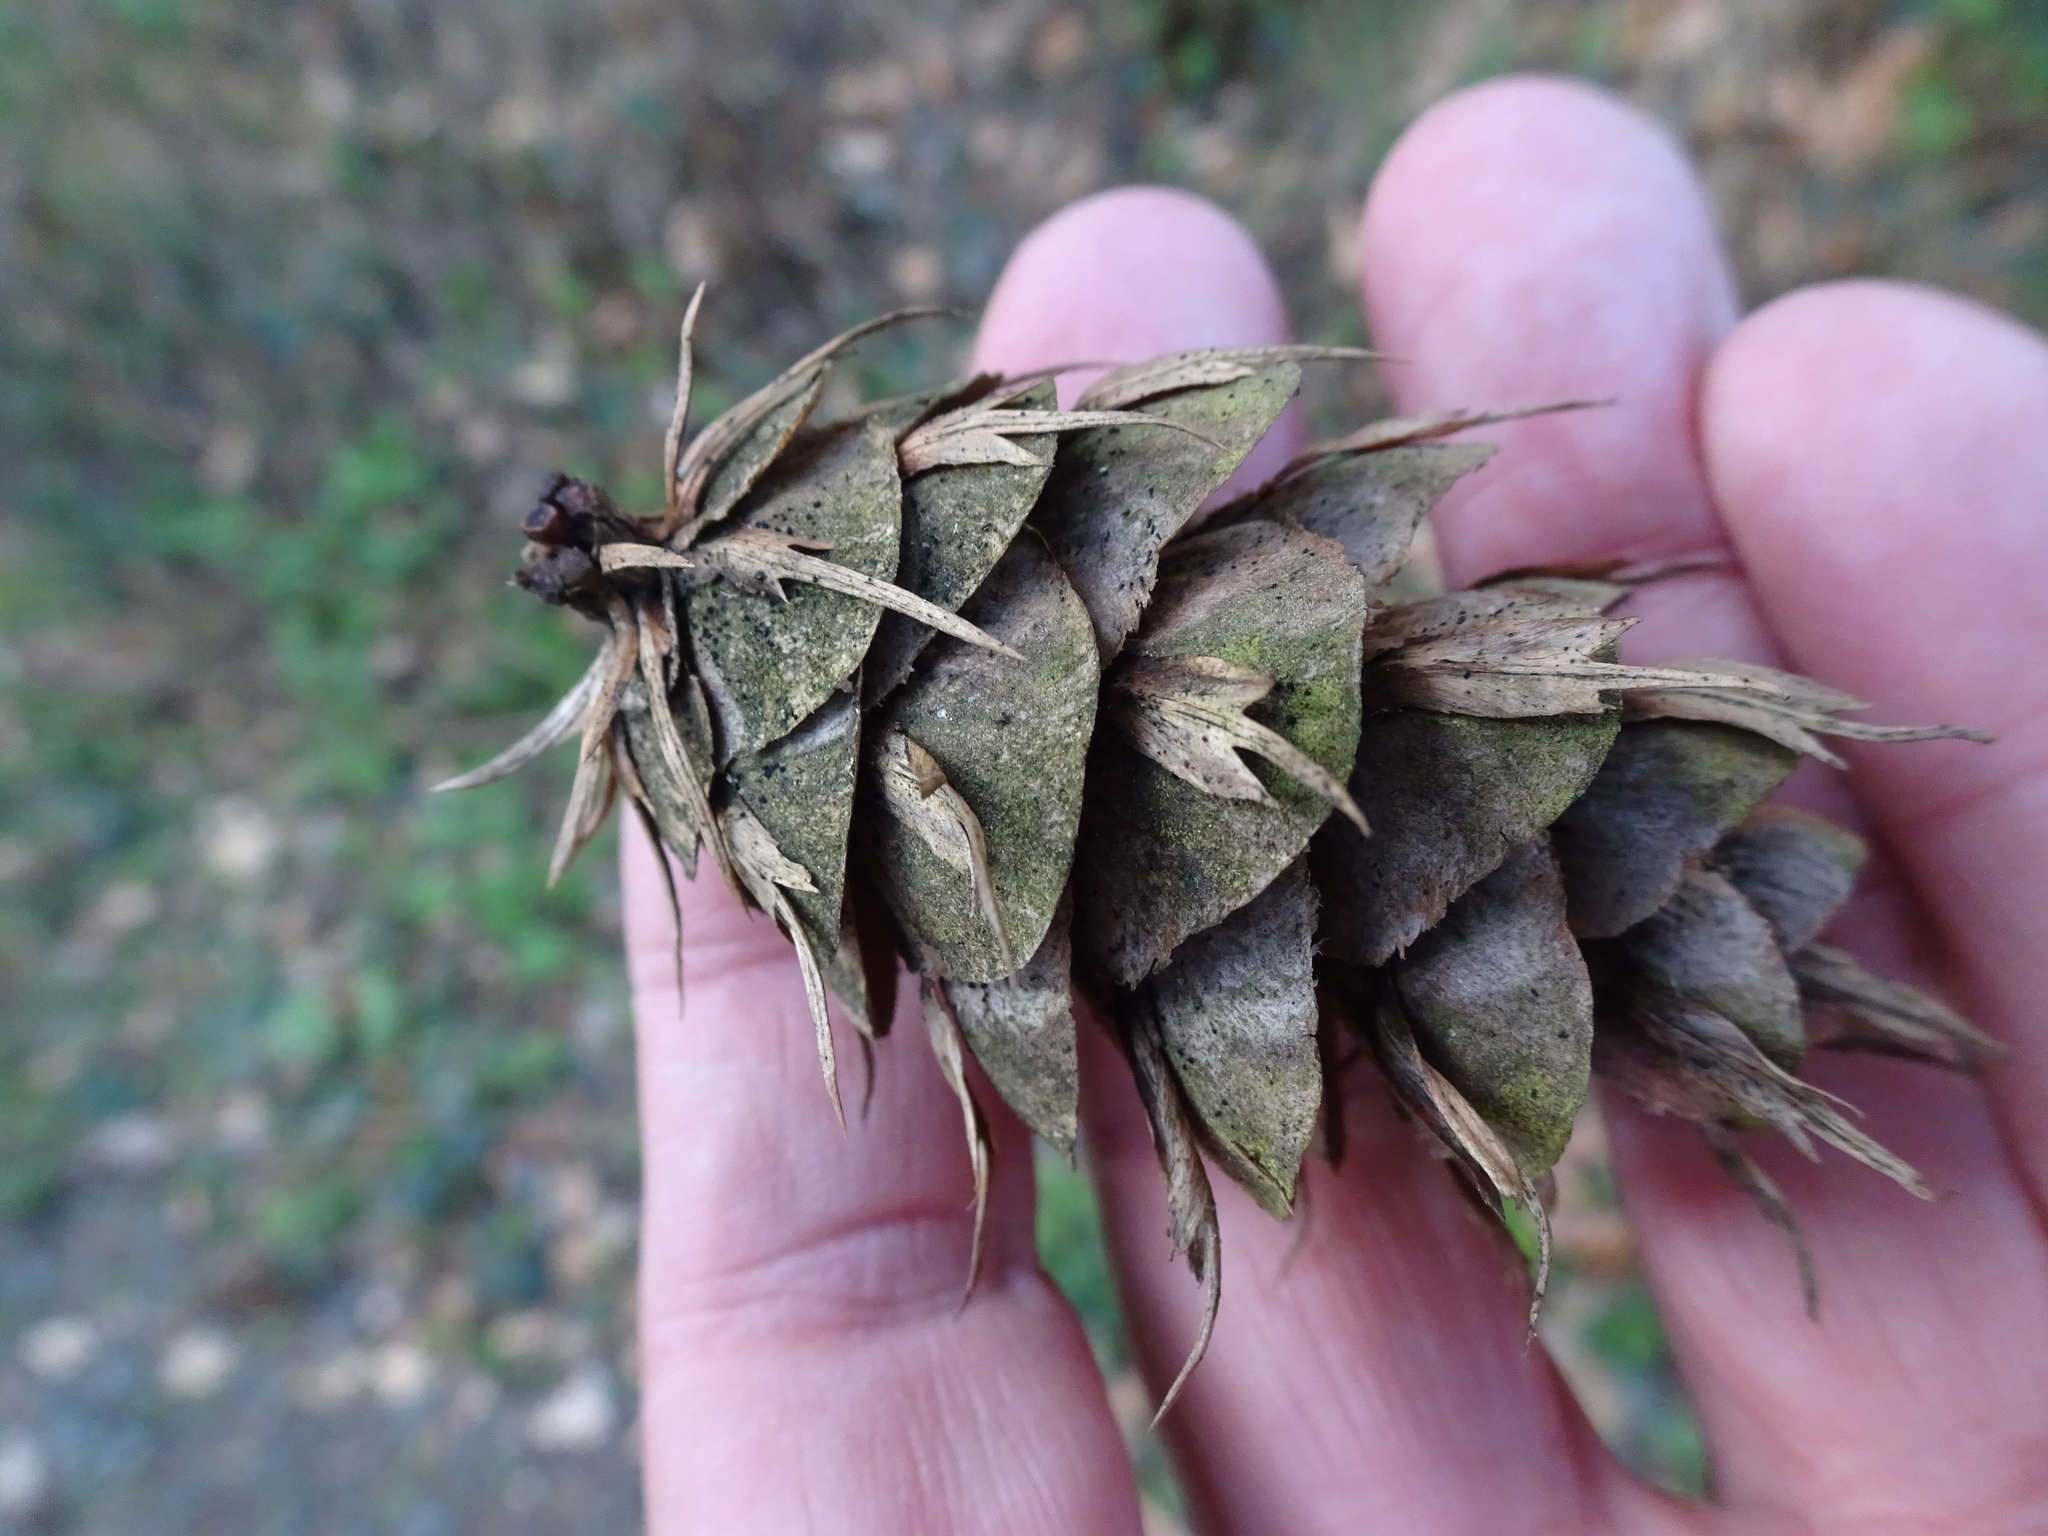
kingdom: Plantae
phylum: Tracheophyta
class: Pinopsida
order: Pinales
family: Pinaceae
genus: Pseudotsuga
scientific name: Pseudotsuga menziesii
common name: Douglas fir
